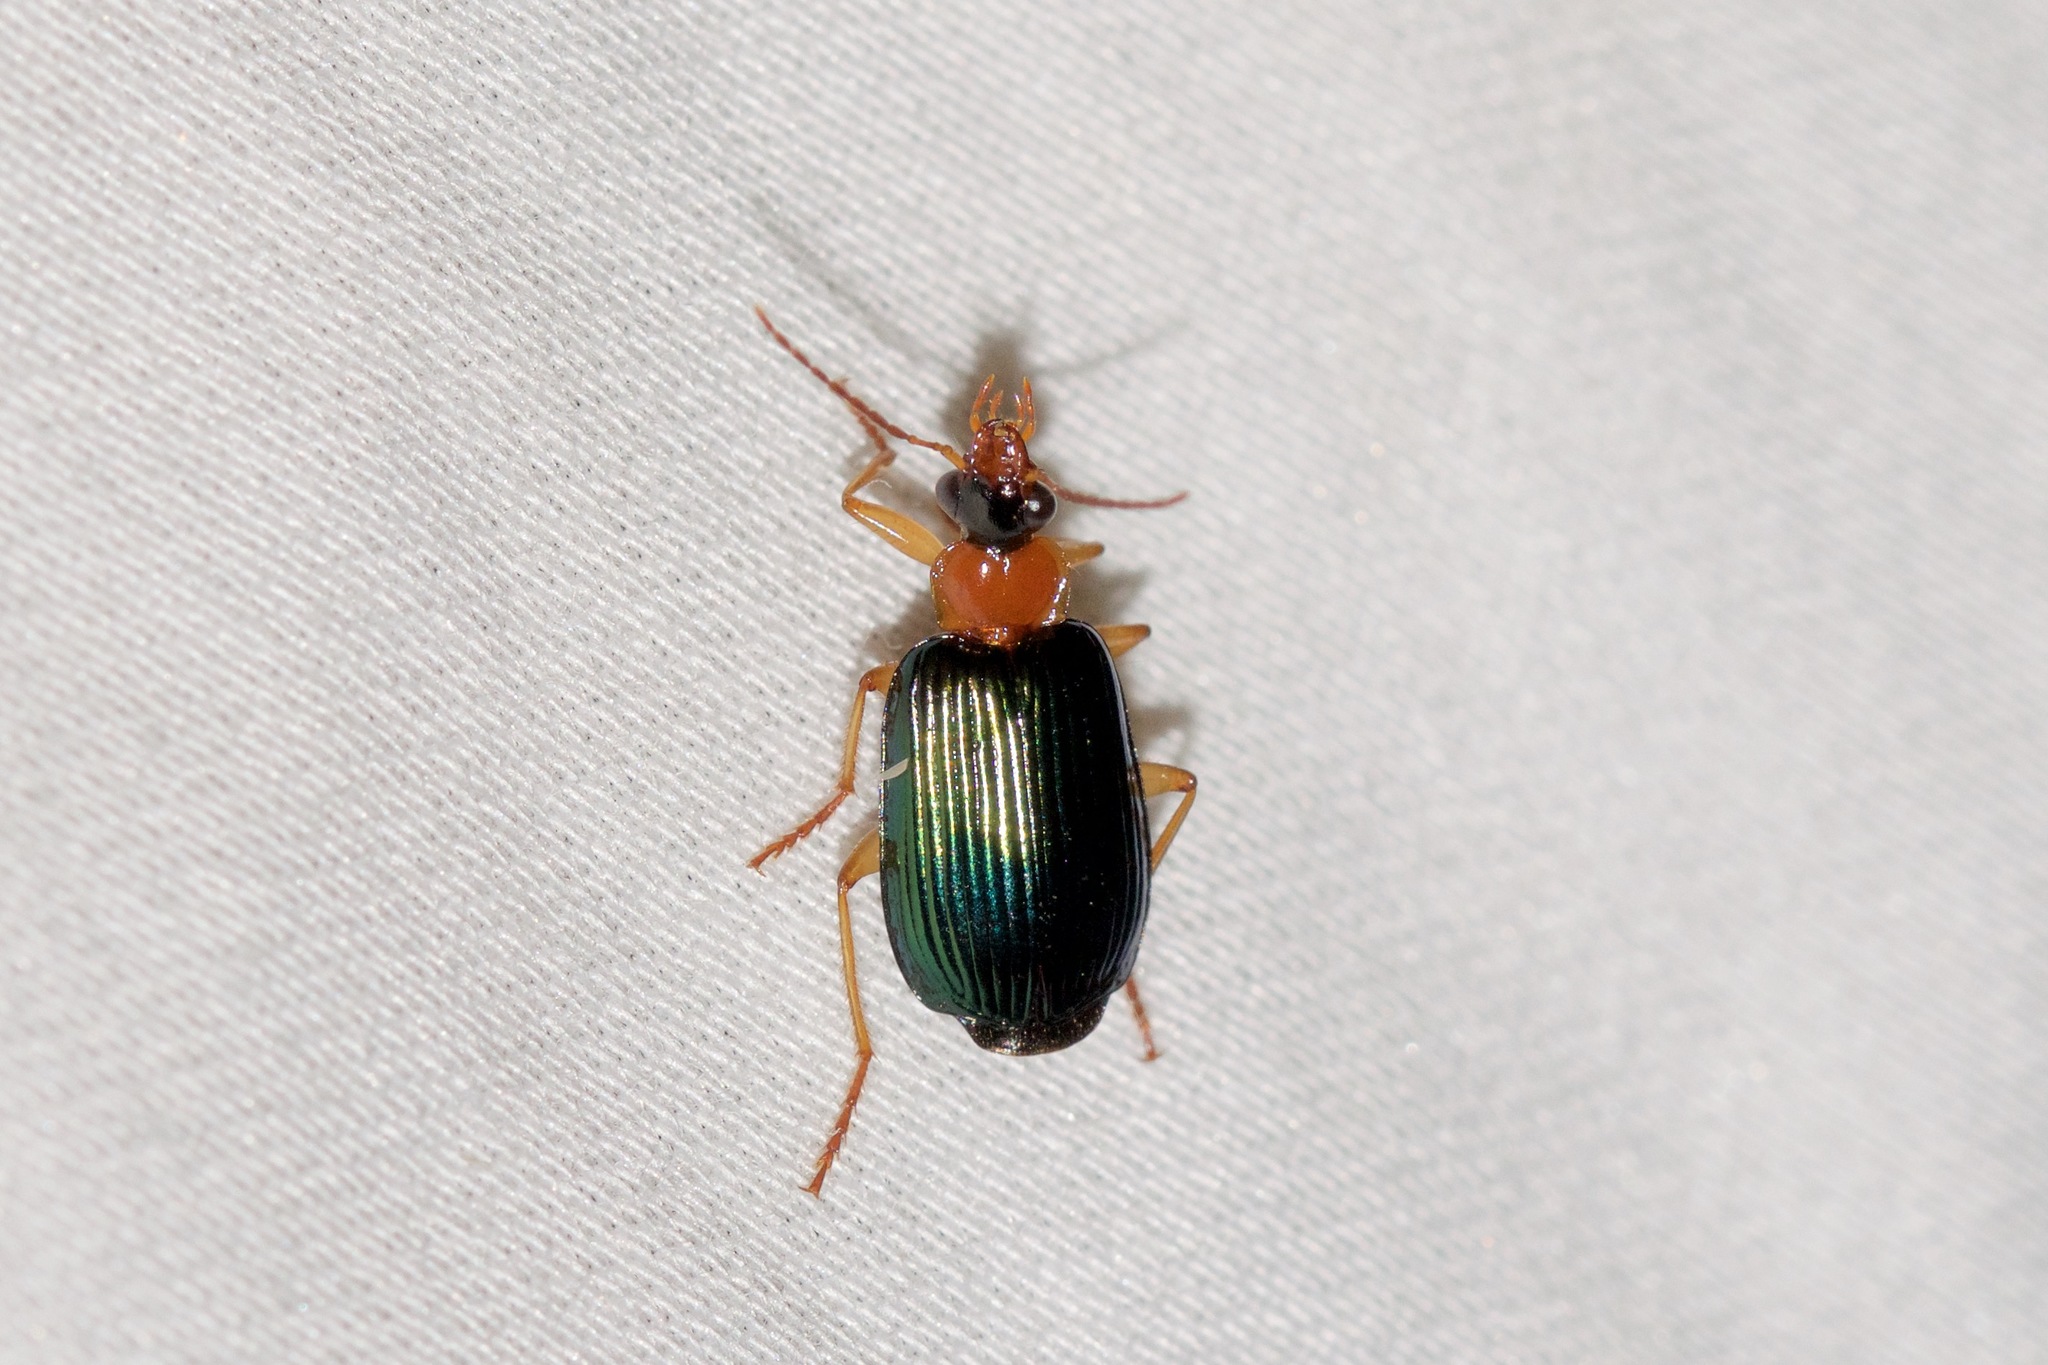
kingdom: Animalia
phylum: Arthropoda
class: Insecta
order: Coleoptera
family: Carabidae
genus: Lebia
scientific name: Lebia tricolor
